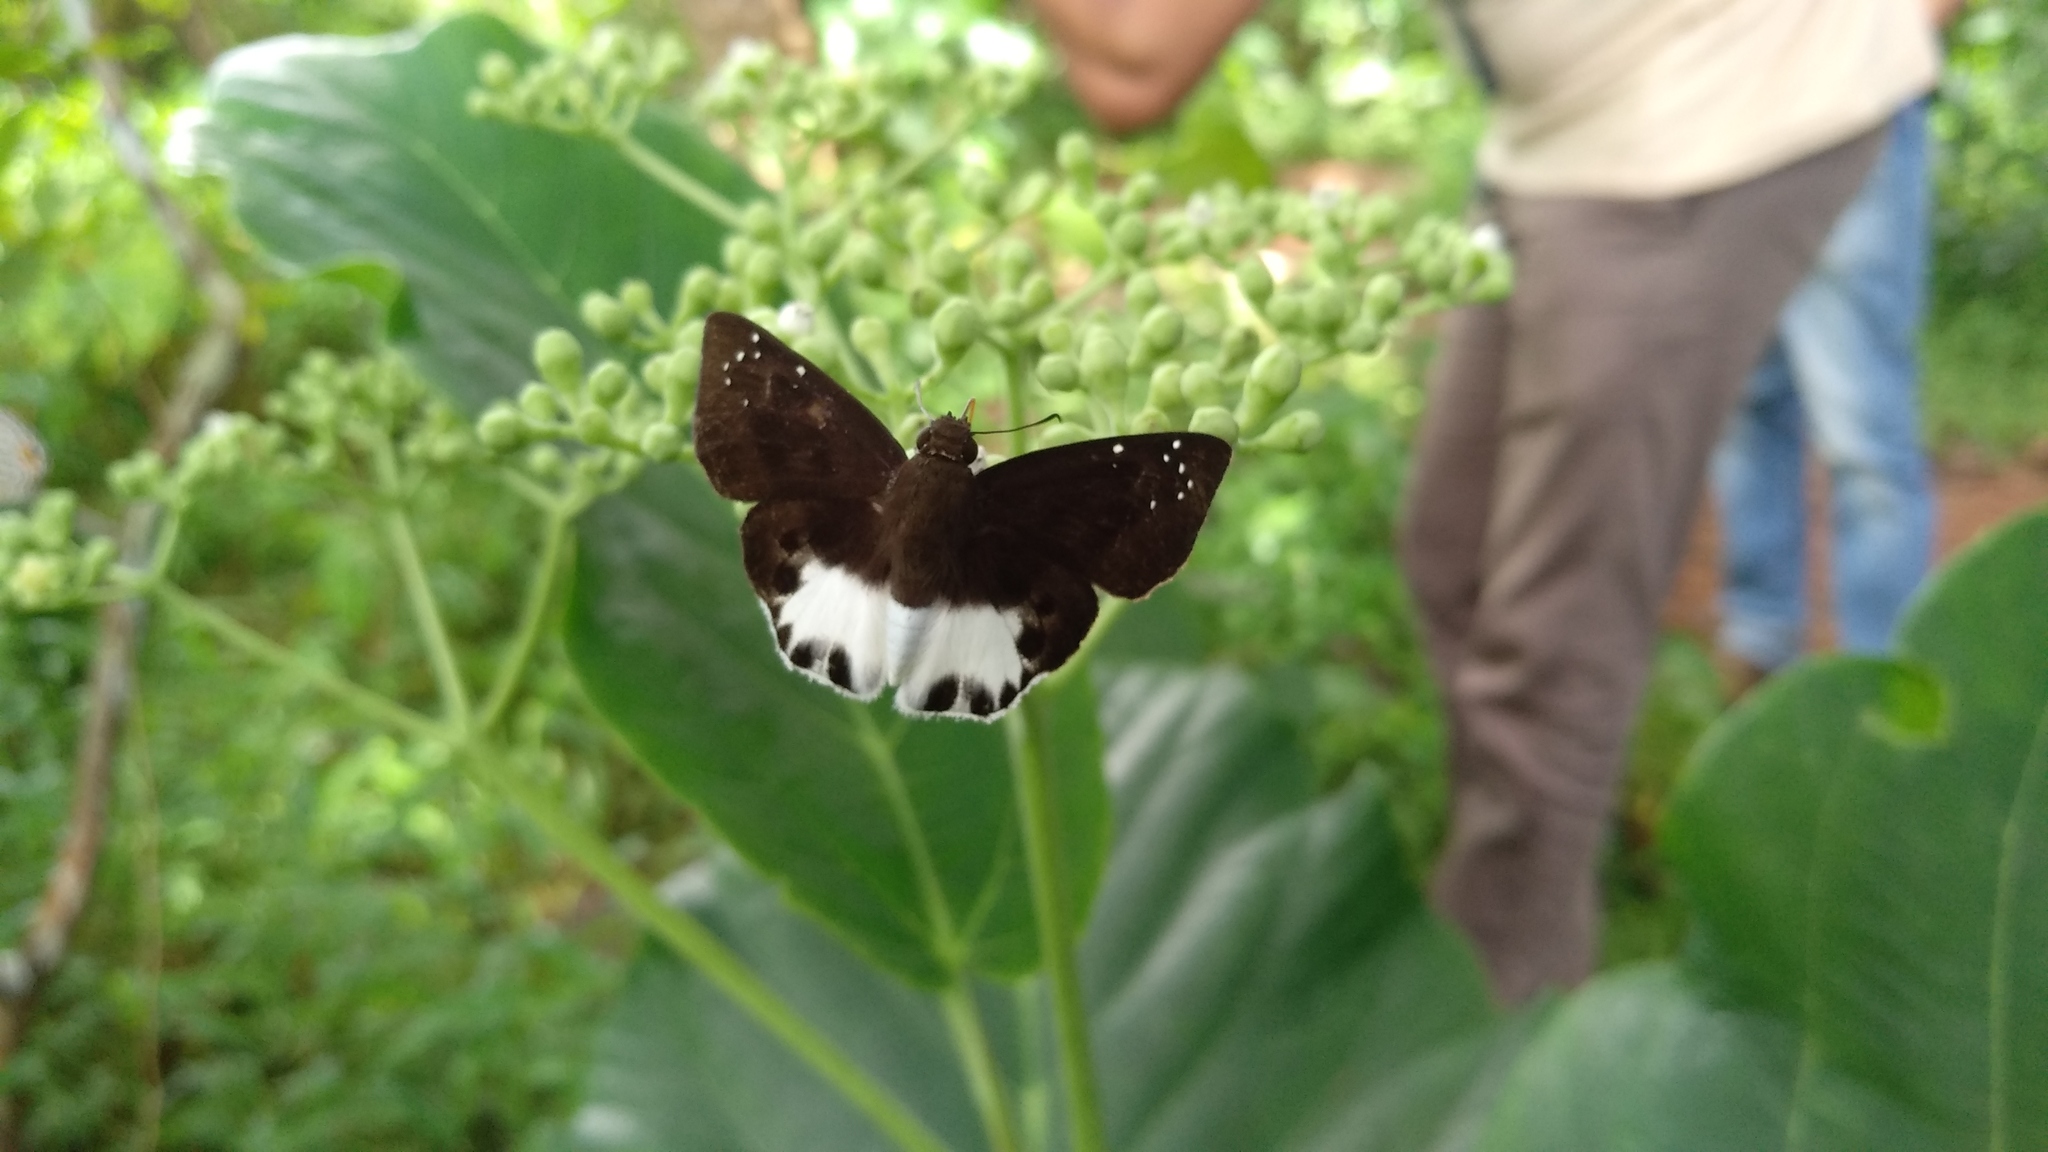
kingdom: Animalia
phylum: Arthropoda
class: Insecta
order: Lepidoptera
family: Hesperiidae
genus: Tagiades
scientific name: Tagiades litigiosa
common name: Water snow flat
